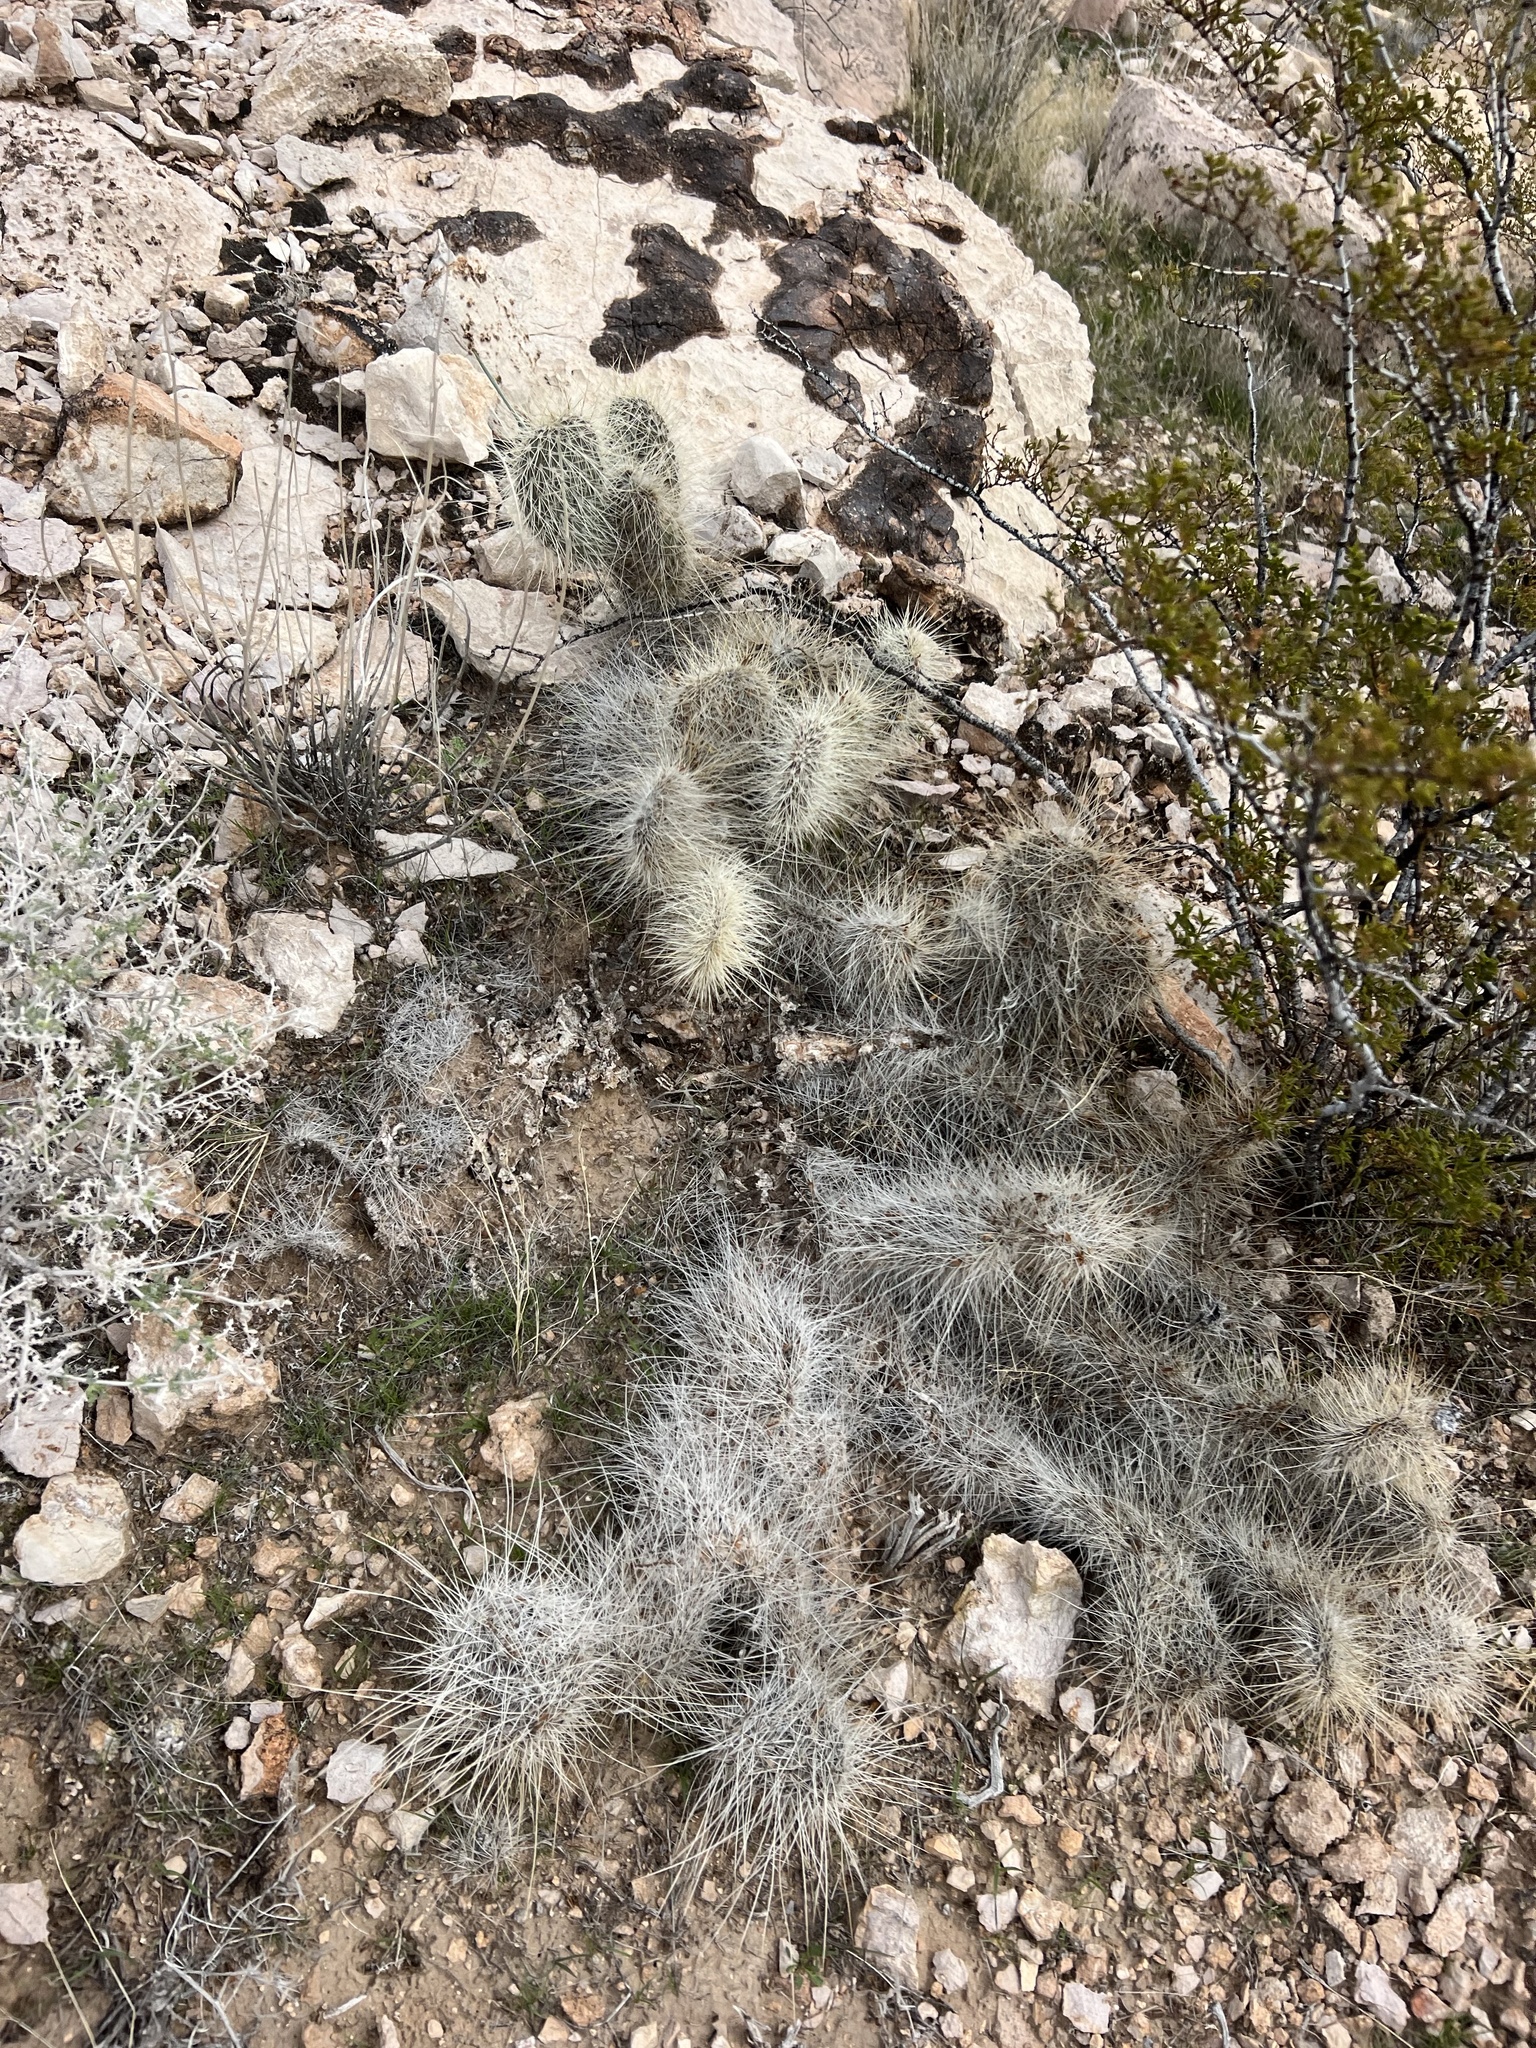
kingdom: Plantae
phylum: Tracheophyta
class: Magnoliopsida
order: Caryophyllales
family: Cactaceae
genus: Opuntia
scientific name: Opuntia polyacantha
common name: Plains prickly-pear
